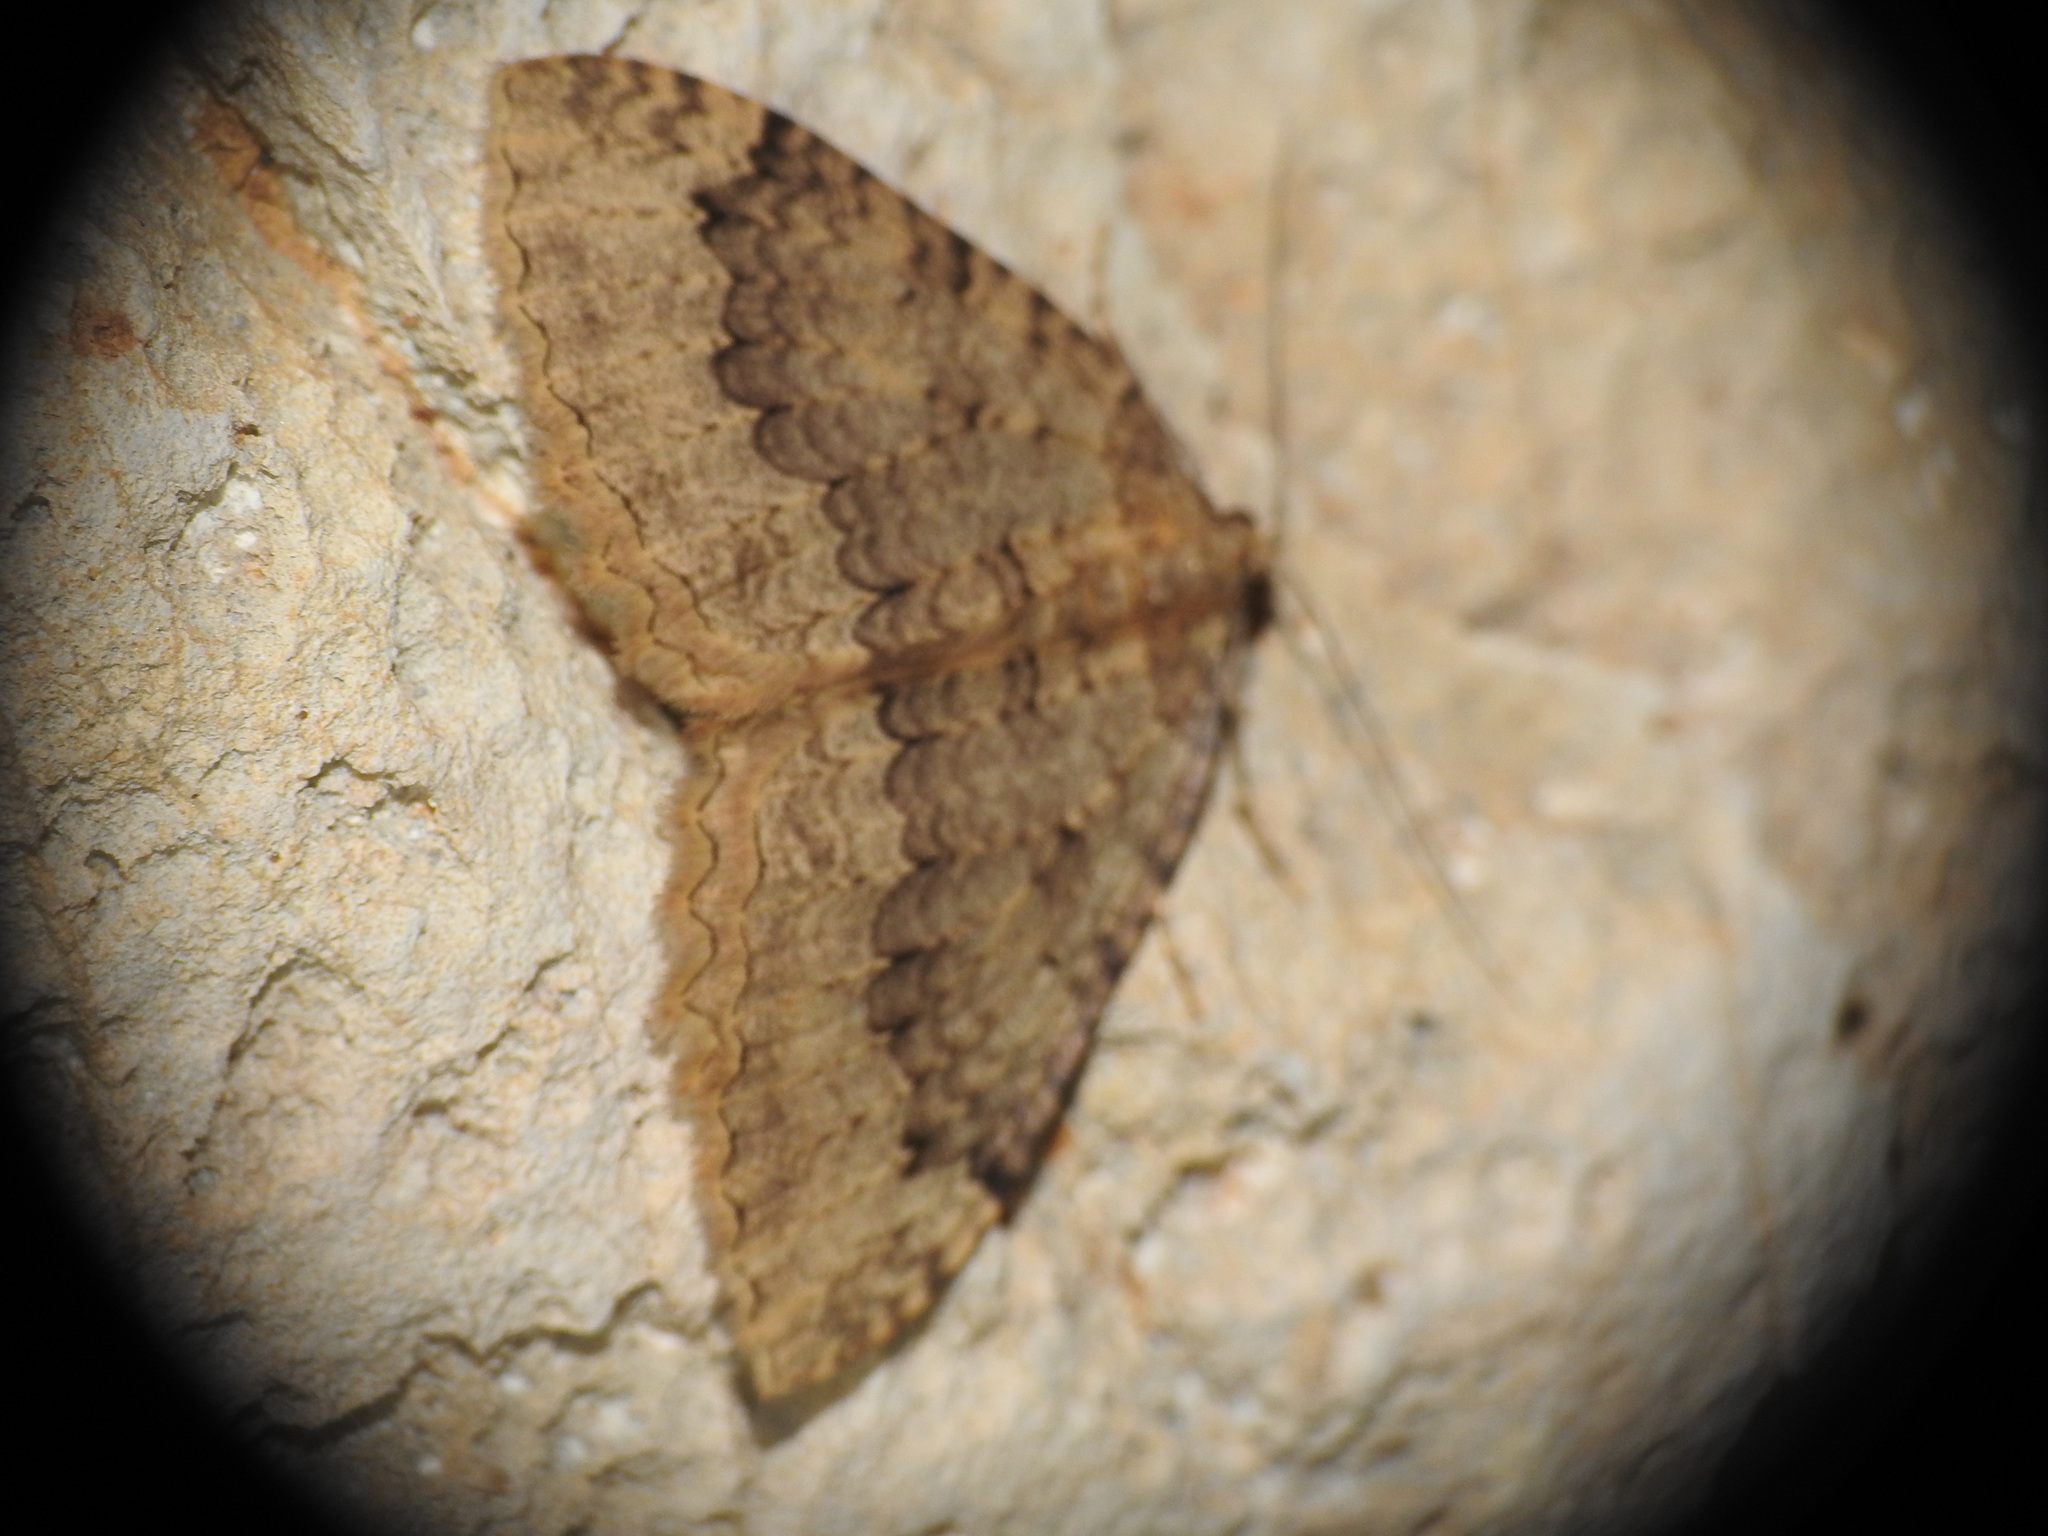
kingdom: Animalia
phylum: Arthropoda
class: Insecta
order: Lepidoptera
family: Geometridae
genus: Triphosa
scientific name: Triphosa tauteli
